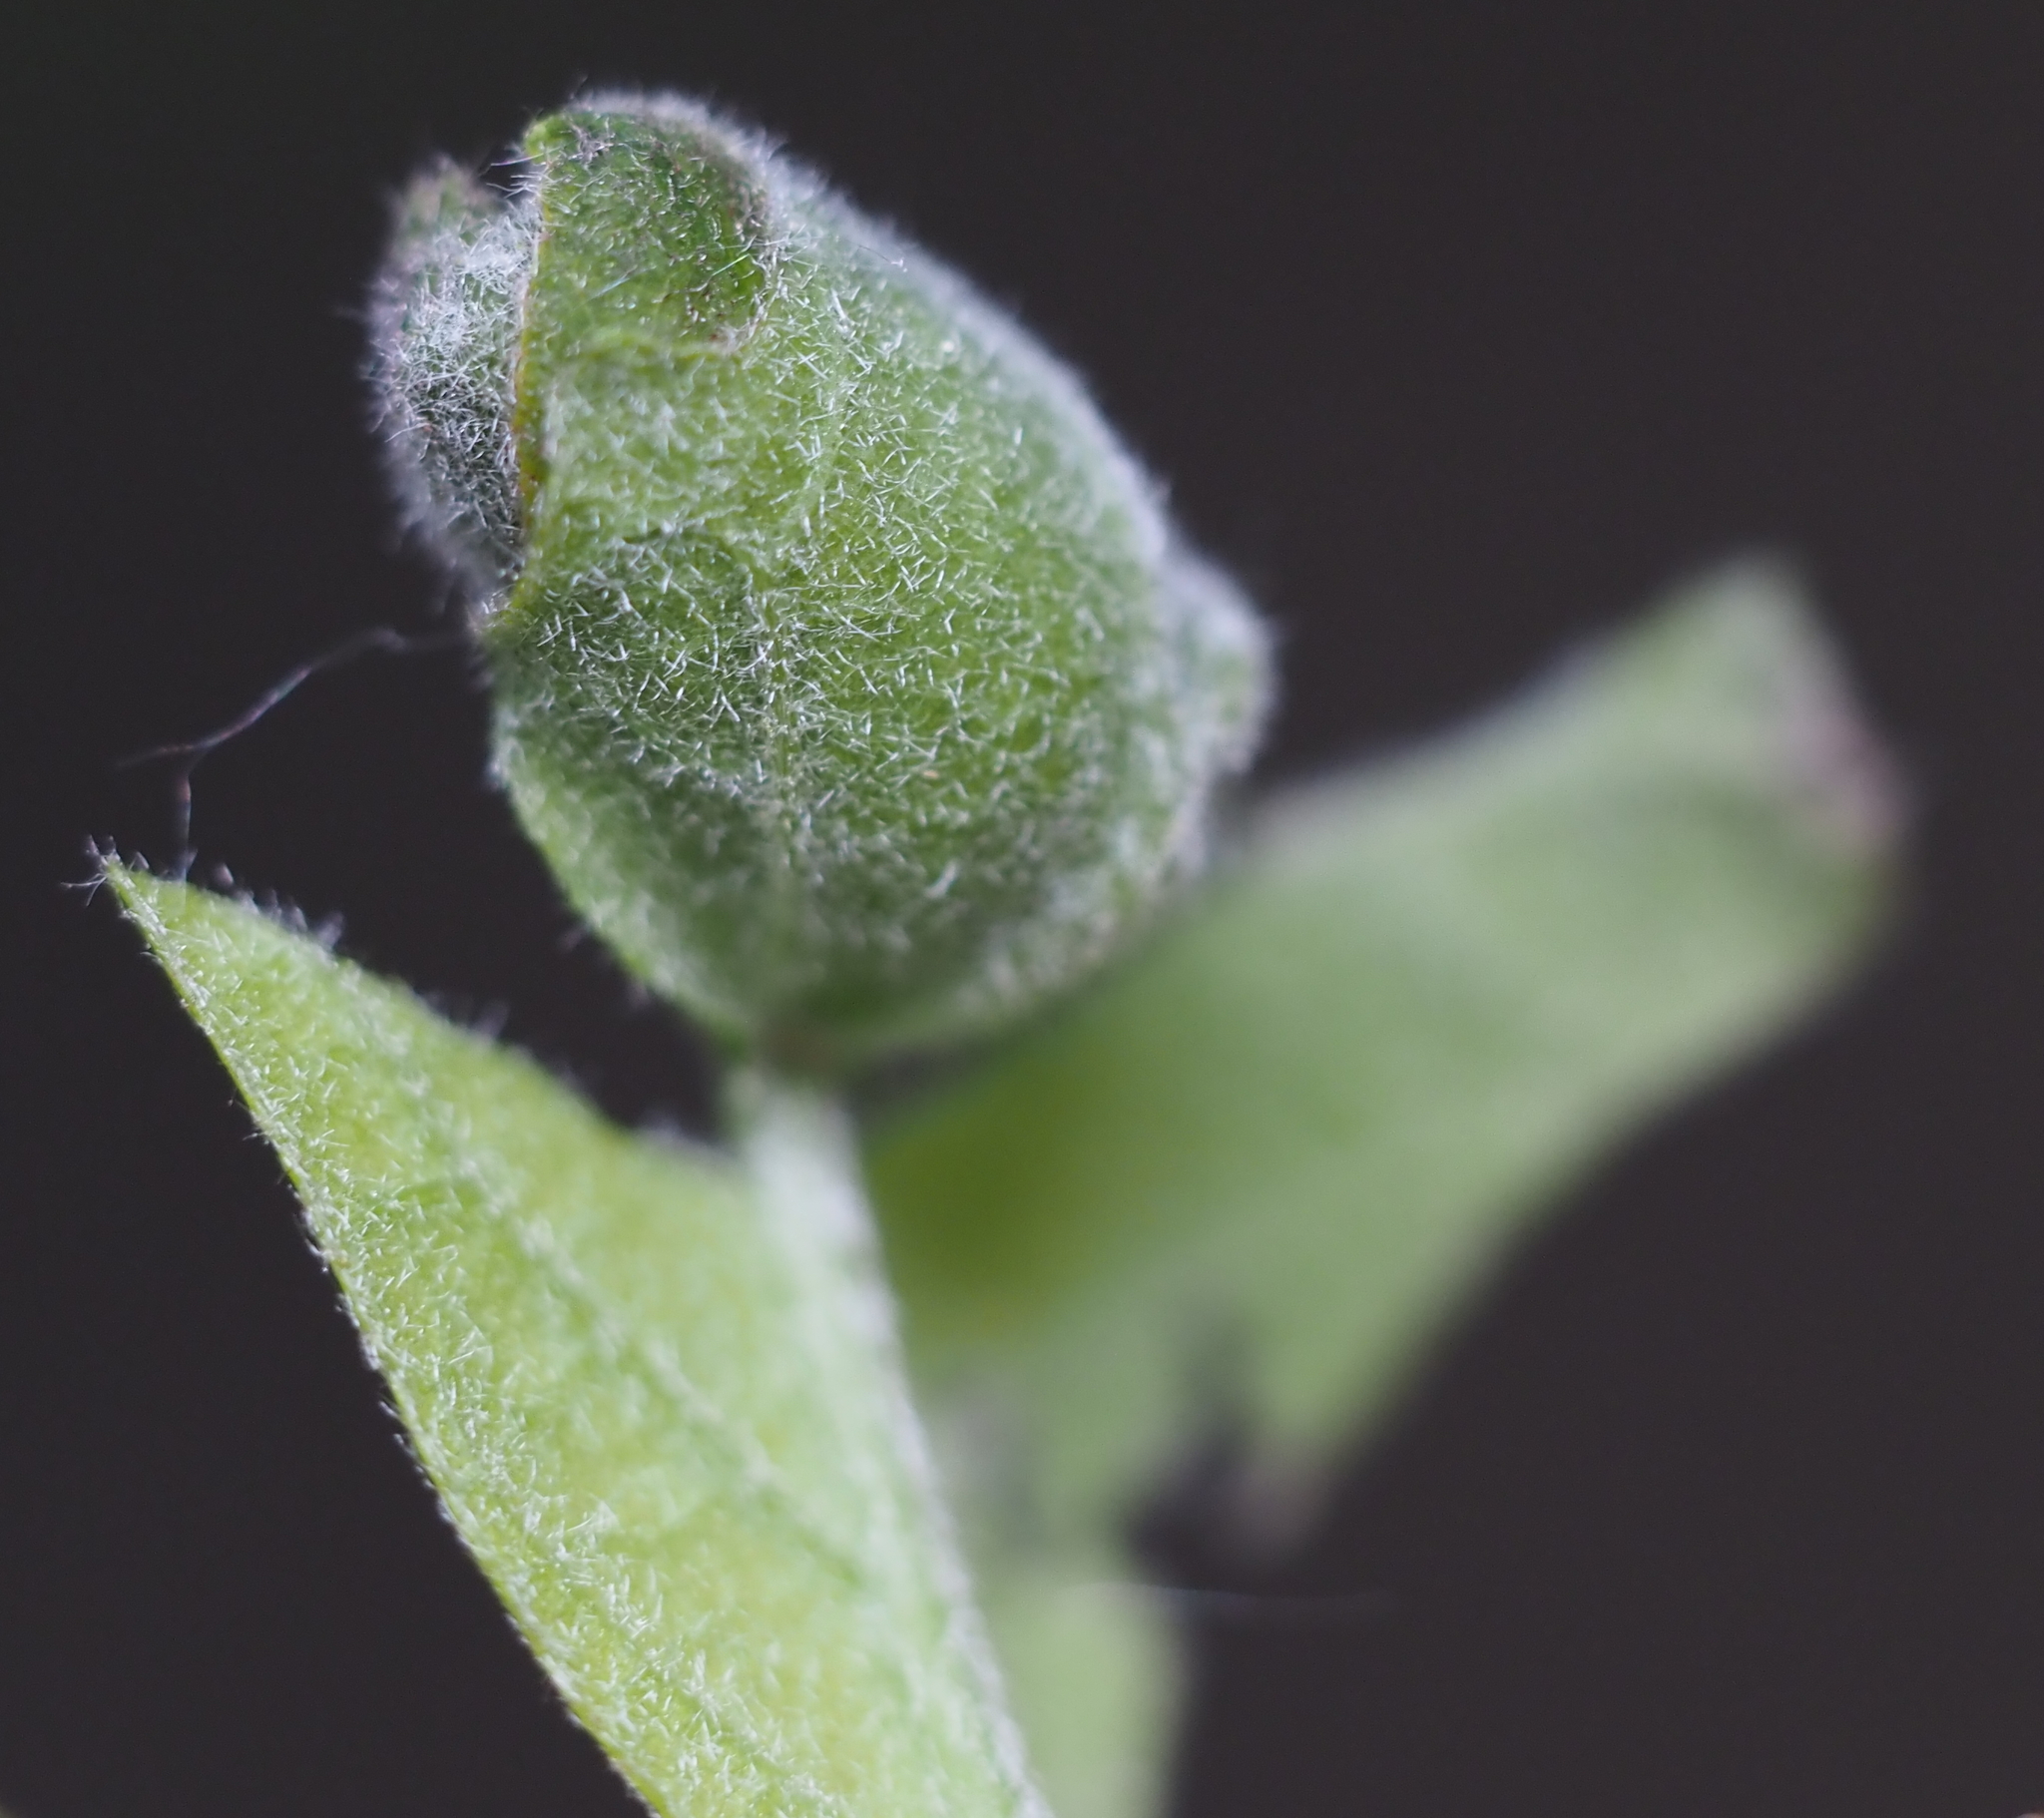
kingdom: Animalia
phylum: Arthropoda
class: Insecta
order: Coleoptera
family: Attelabidae
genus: Attelabus
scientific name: Attelabus bipustulatus
